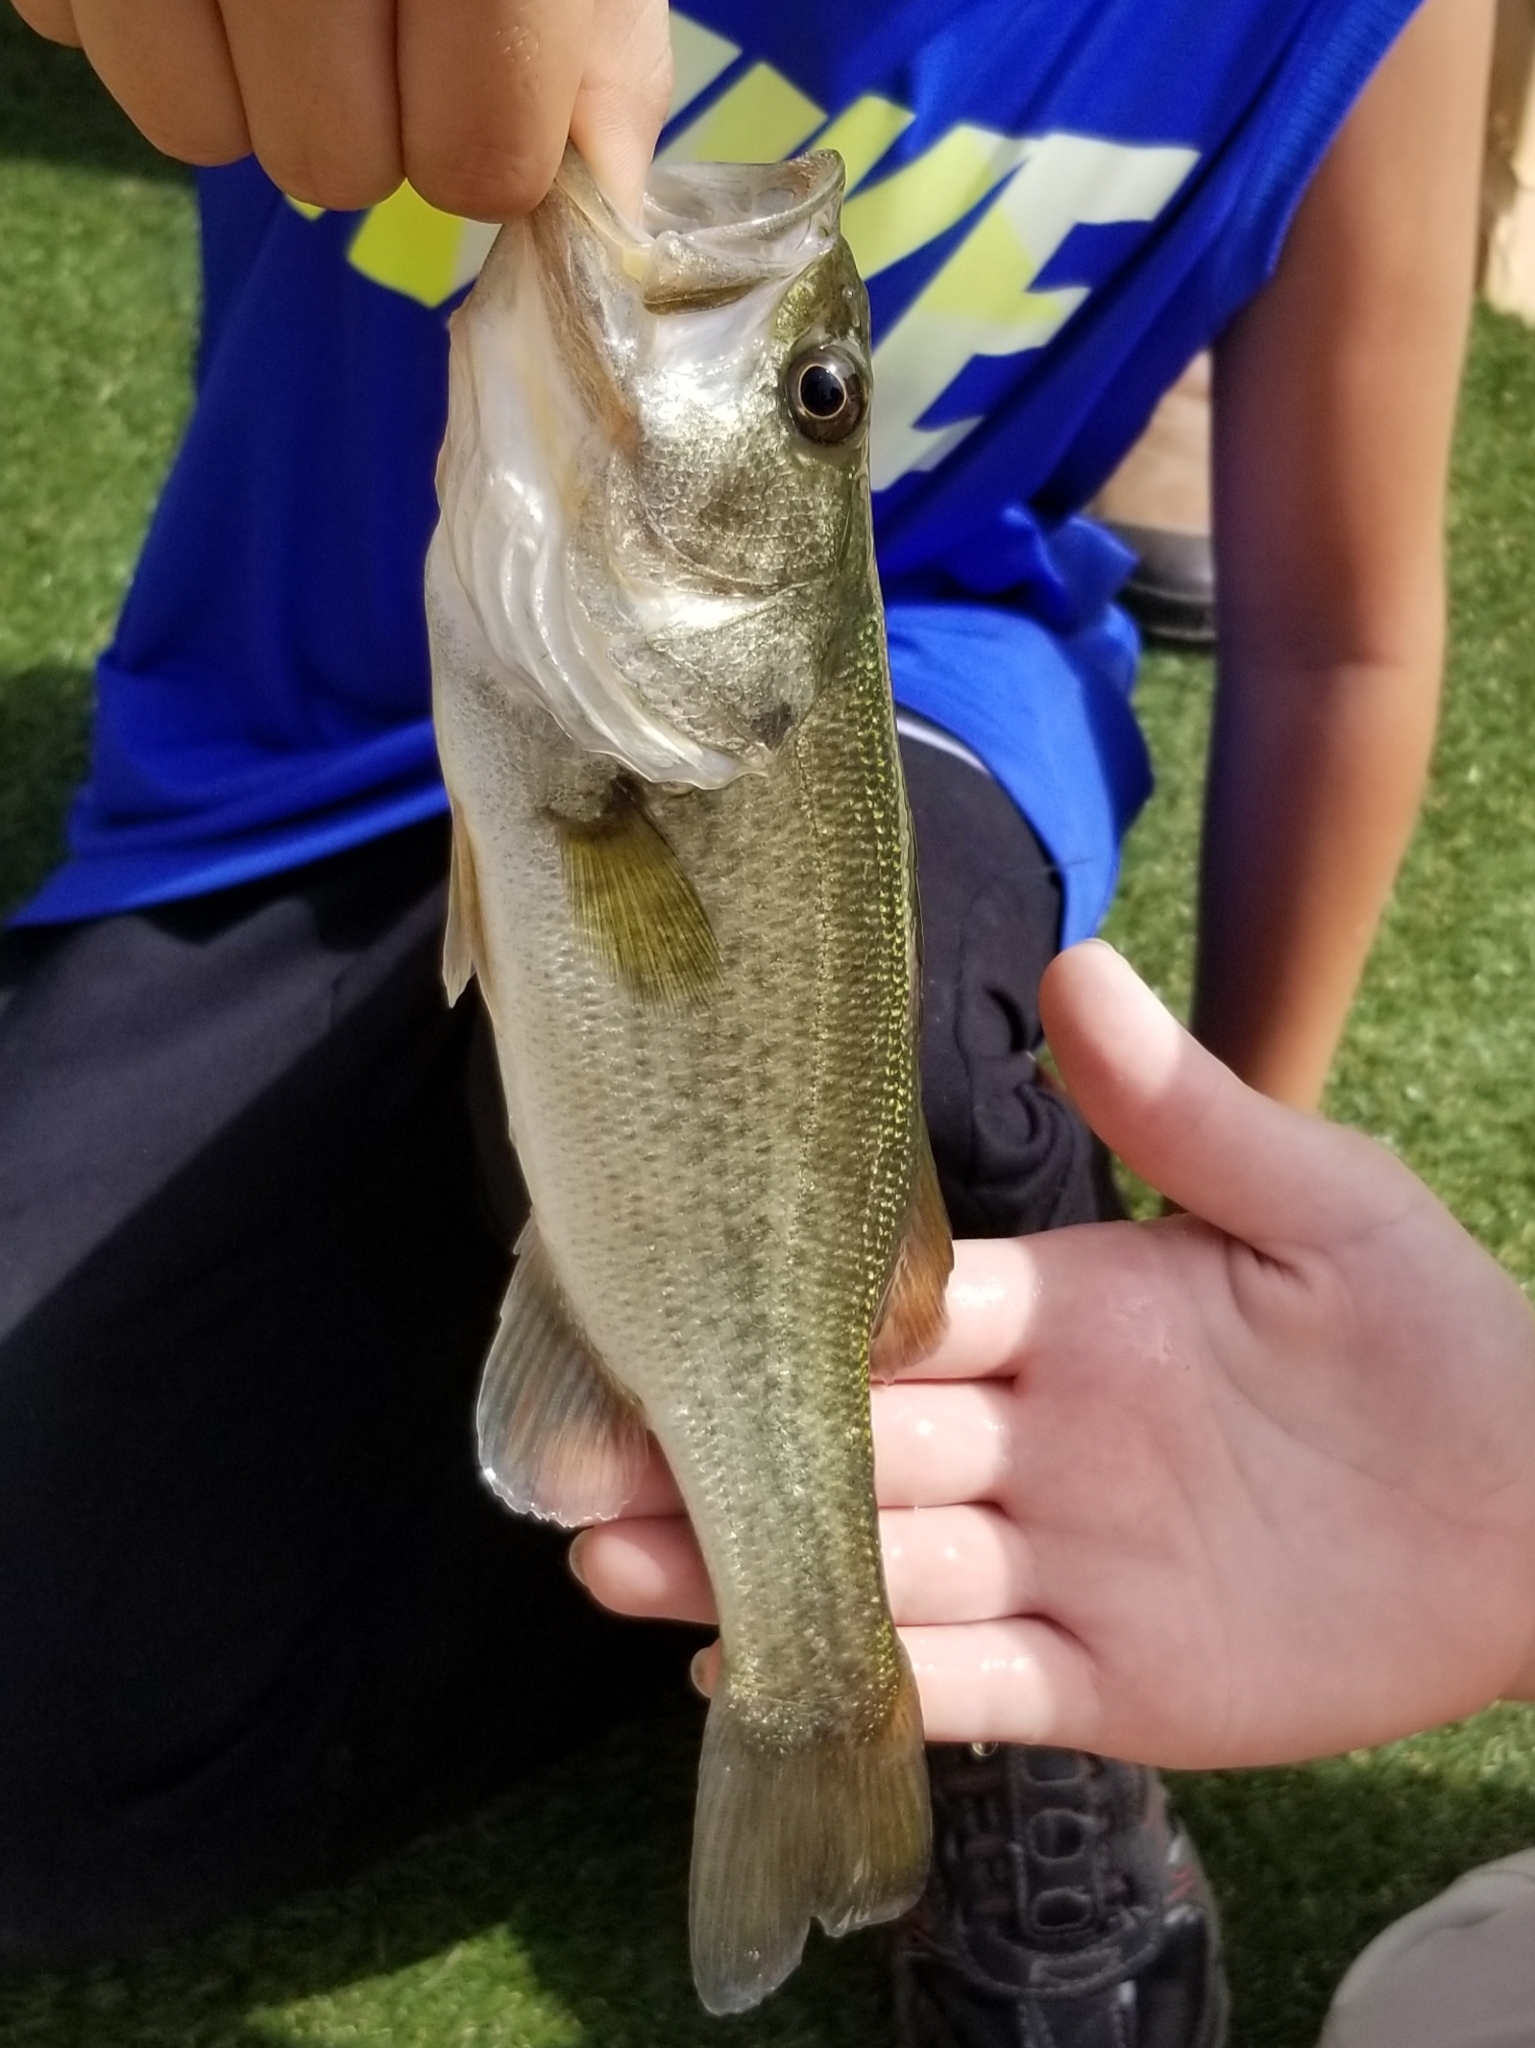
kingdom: Animalia
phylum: Chordata
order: Perciformes
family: Centrarchidae
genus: Micropterus
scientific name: Micropterus
